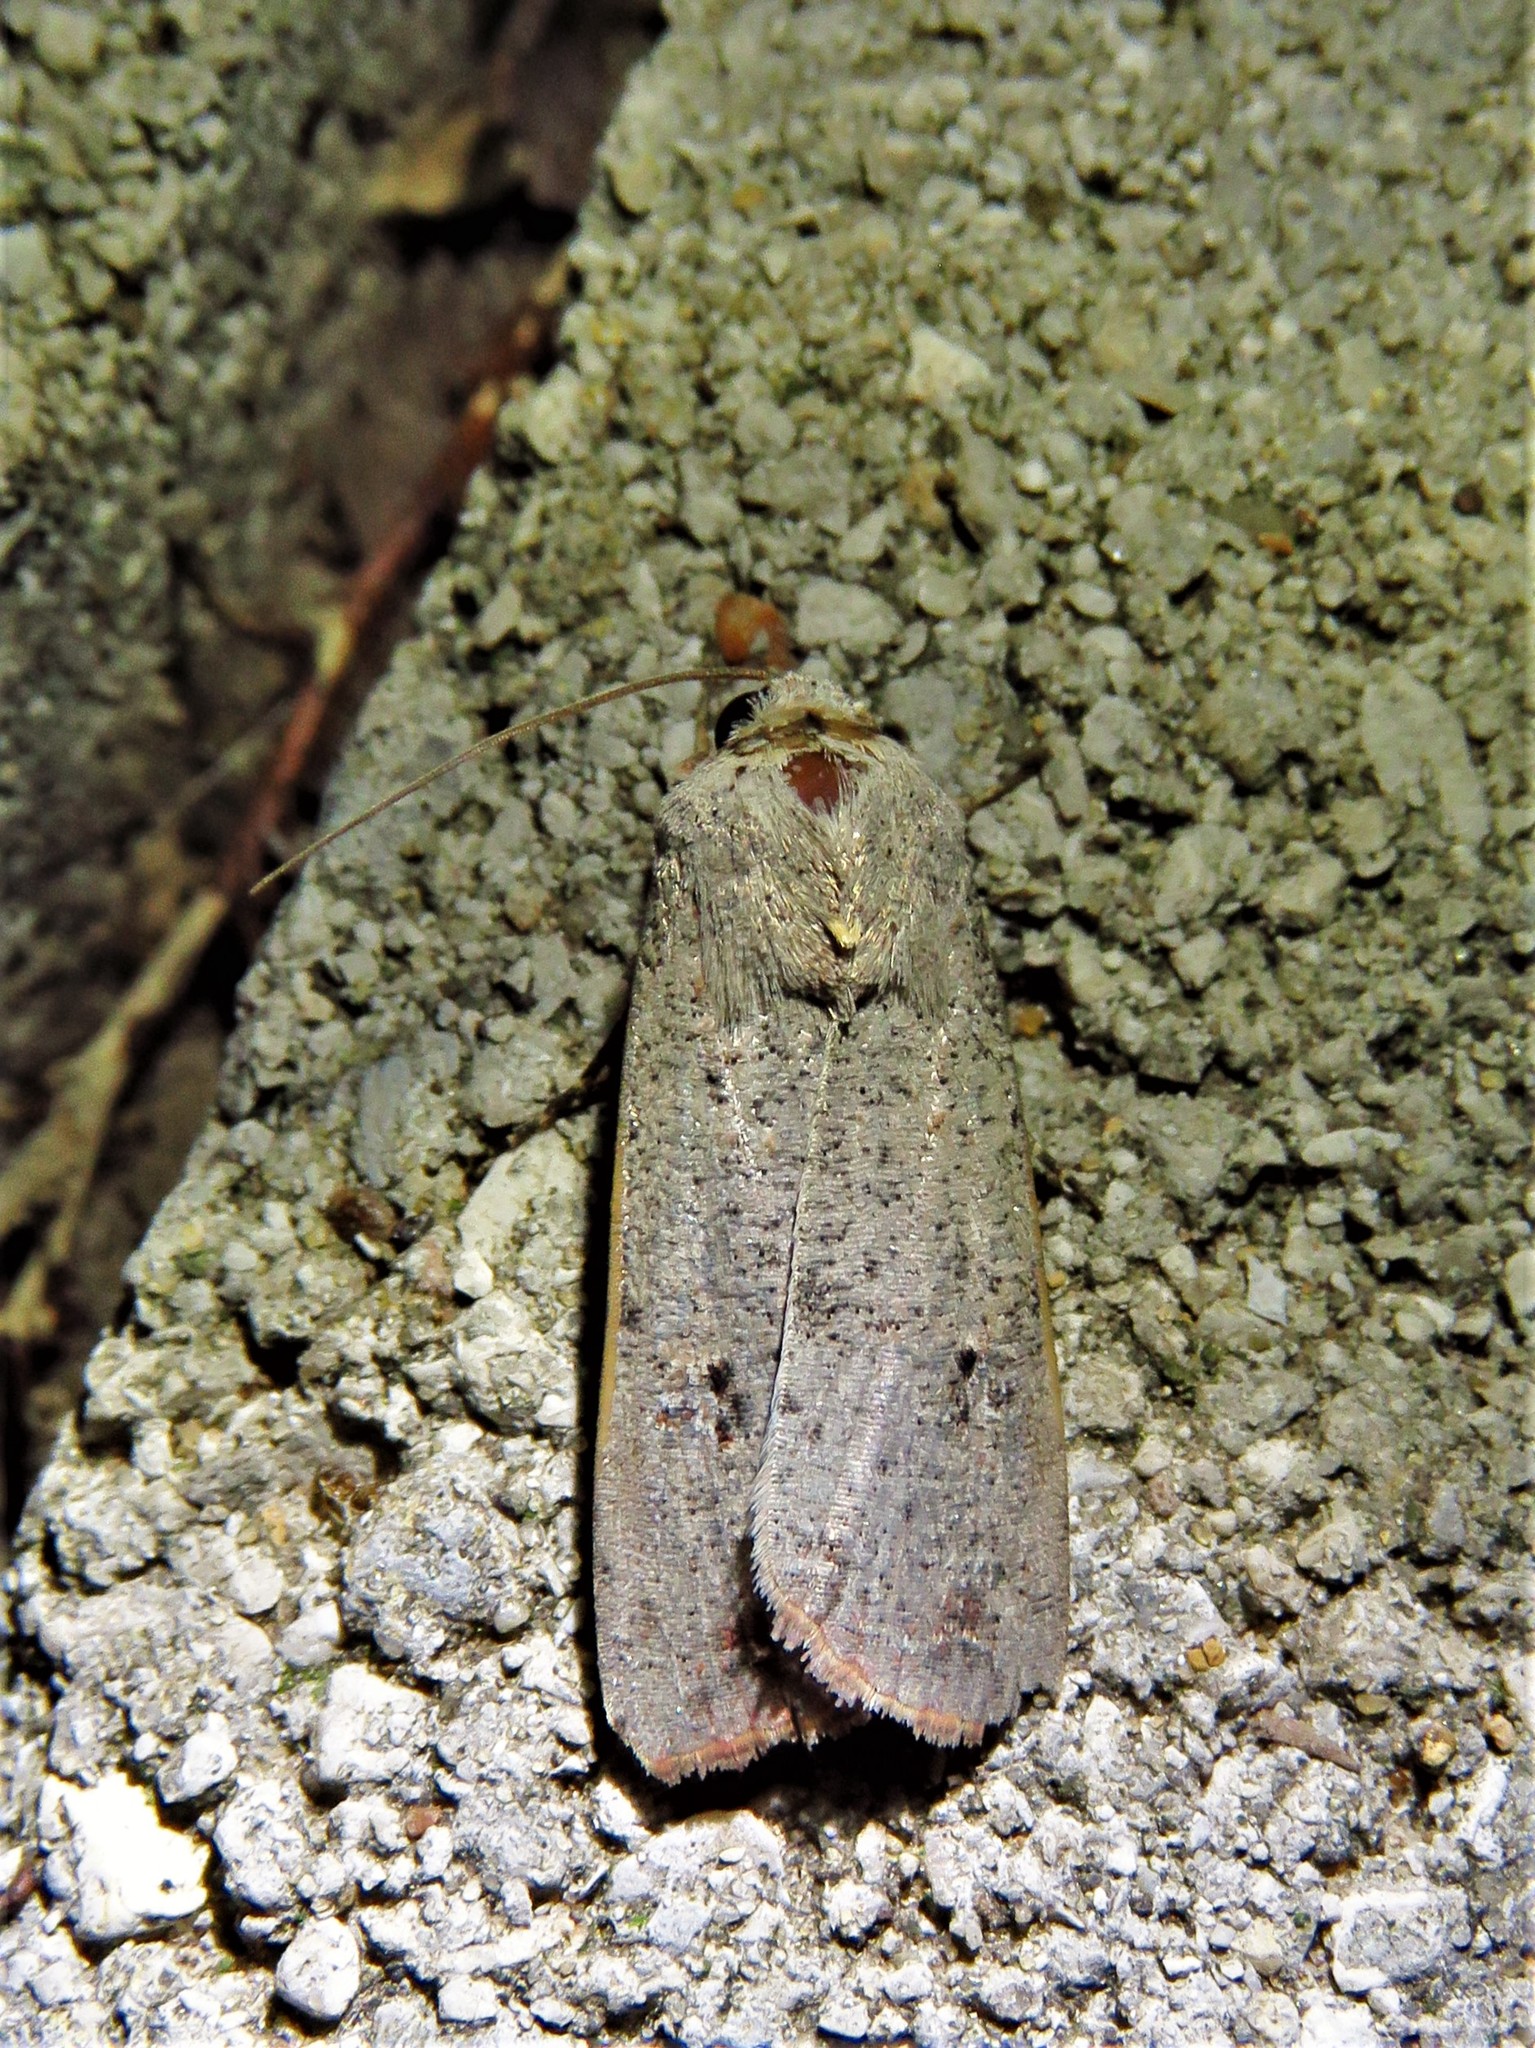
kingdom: Animalia
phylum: Arthropoda
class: Insecta
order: Lepidoptera
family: Noctuidae
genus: Anicla
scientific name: Anicla infecta
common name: Green cutworm
